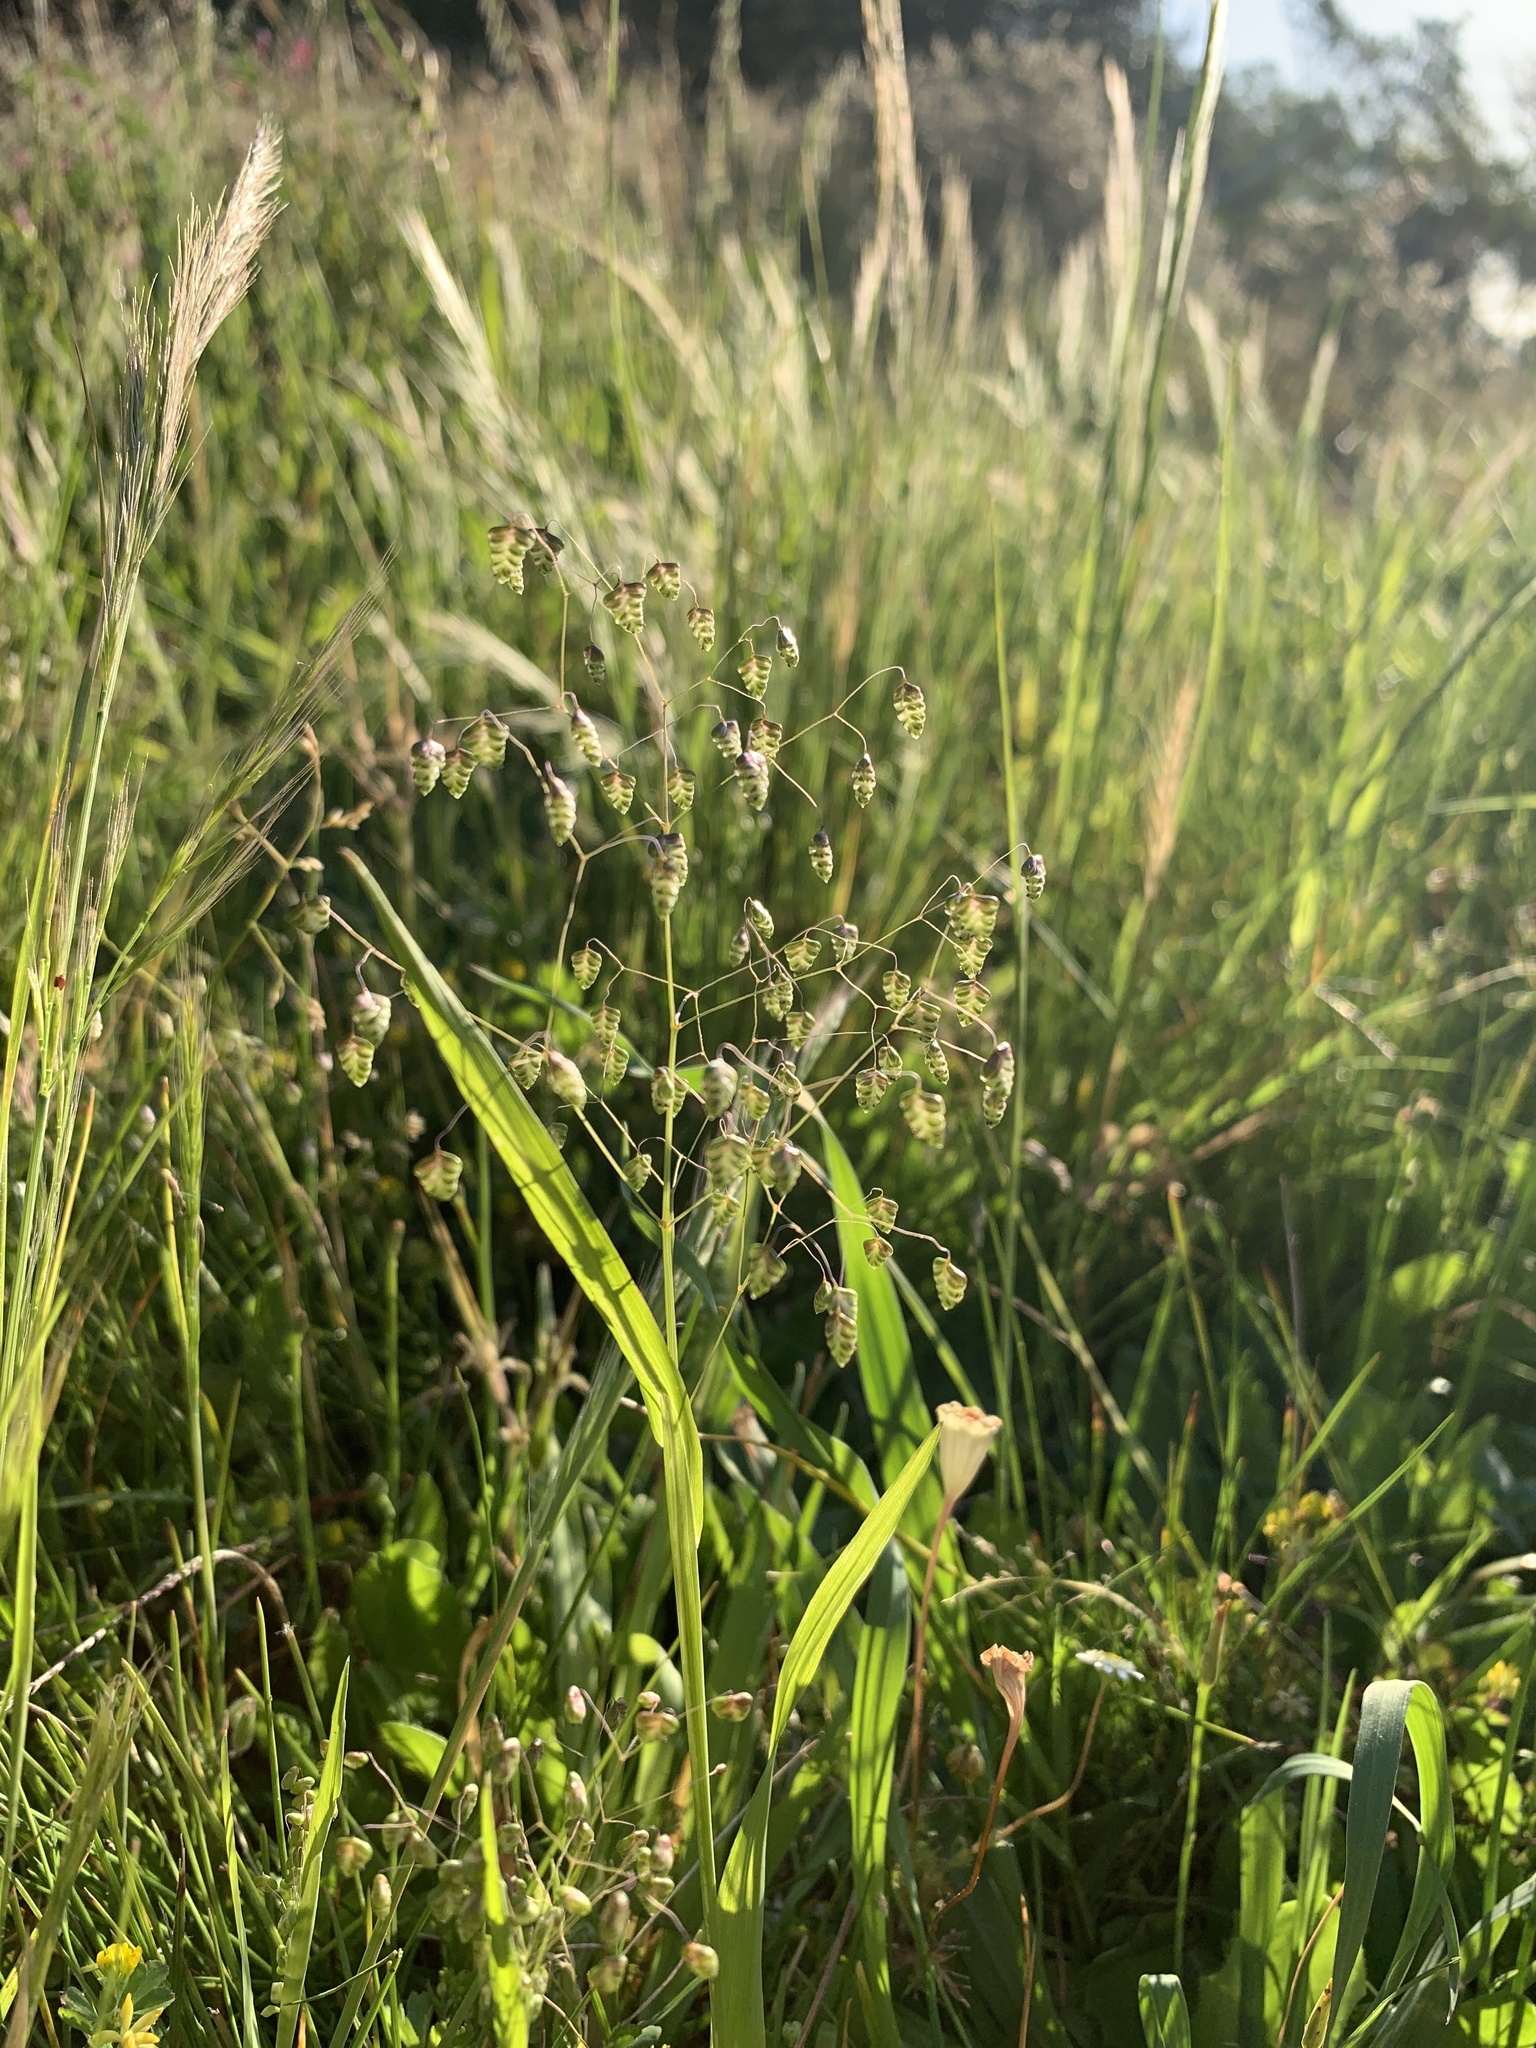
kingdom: Plantae
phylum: Tracheophyta
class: Liliopsida
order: Poales
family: Poaceae
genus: Briza
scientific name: Briza minor
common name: Lesser quaking-grass
